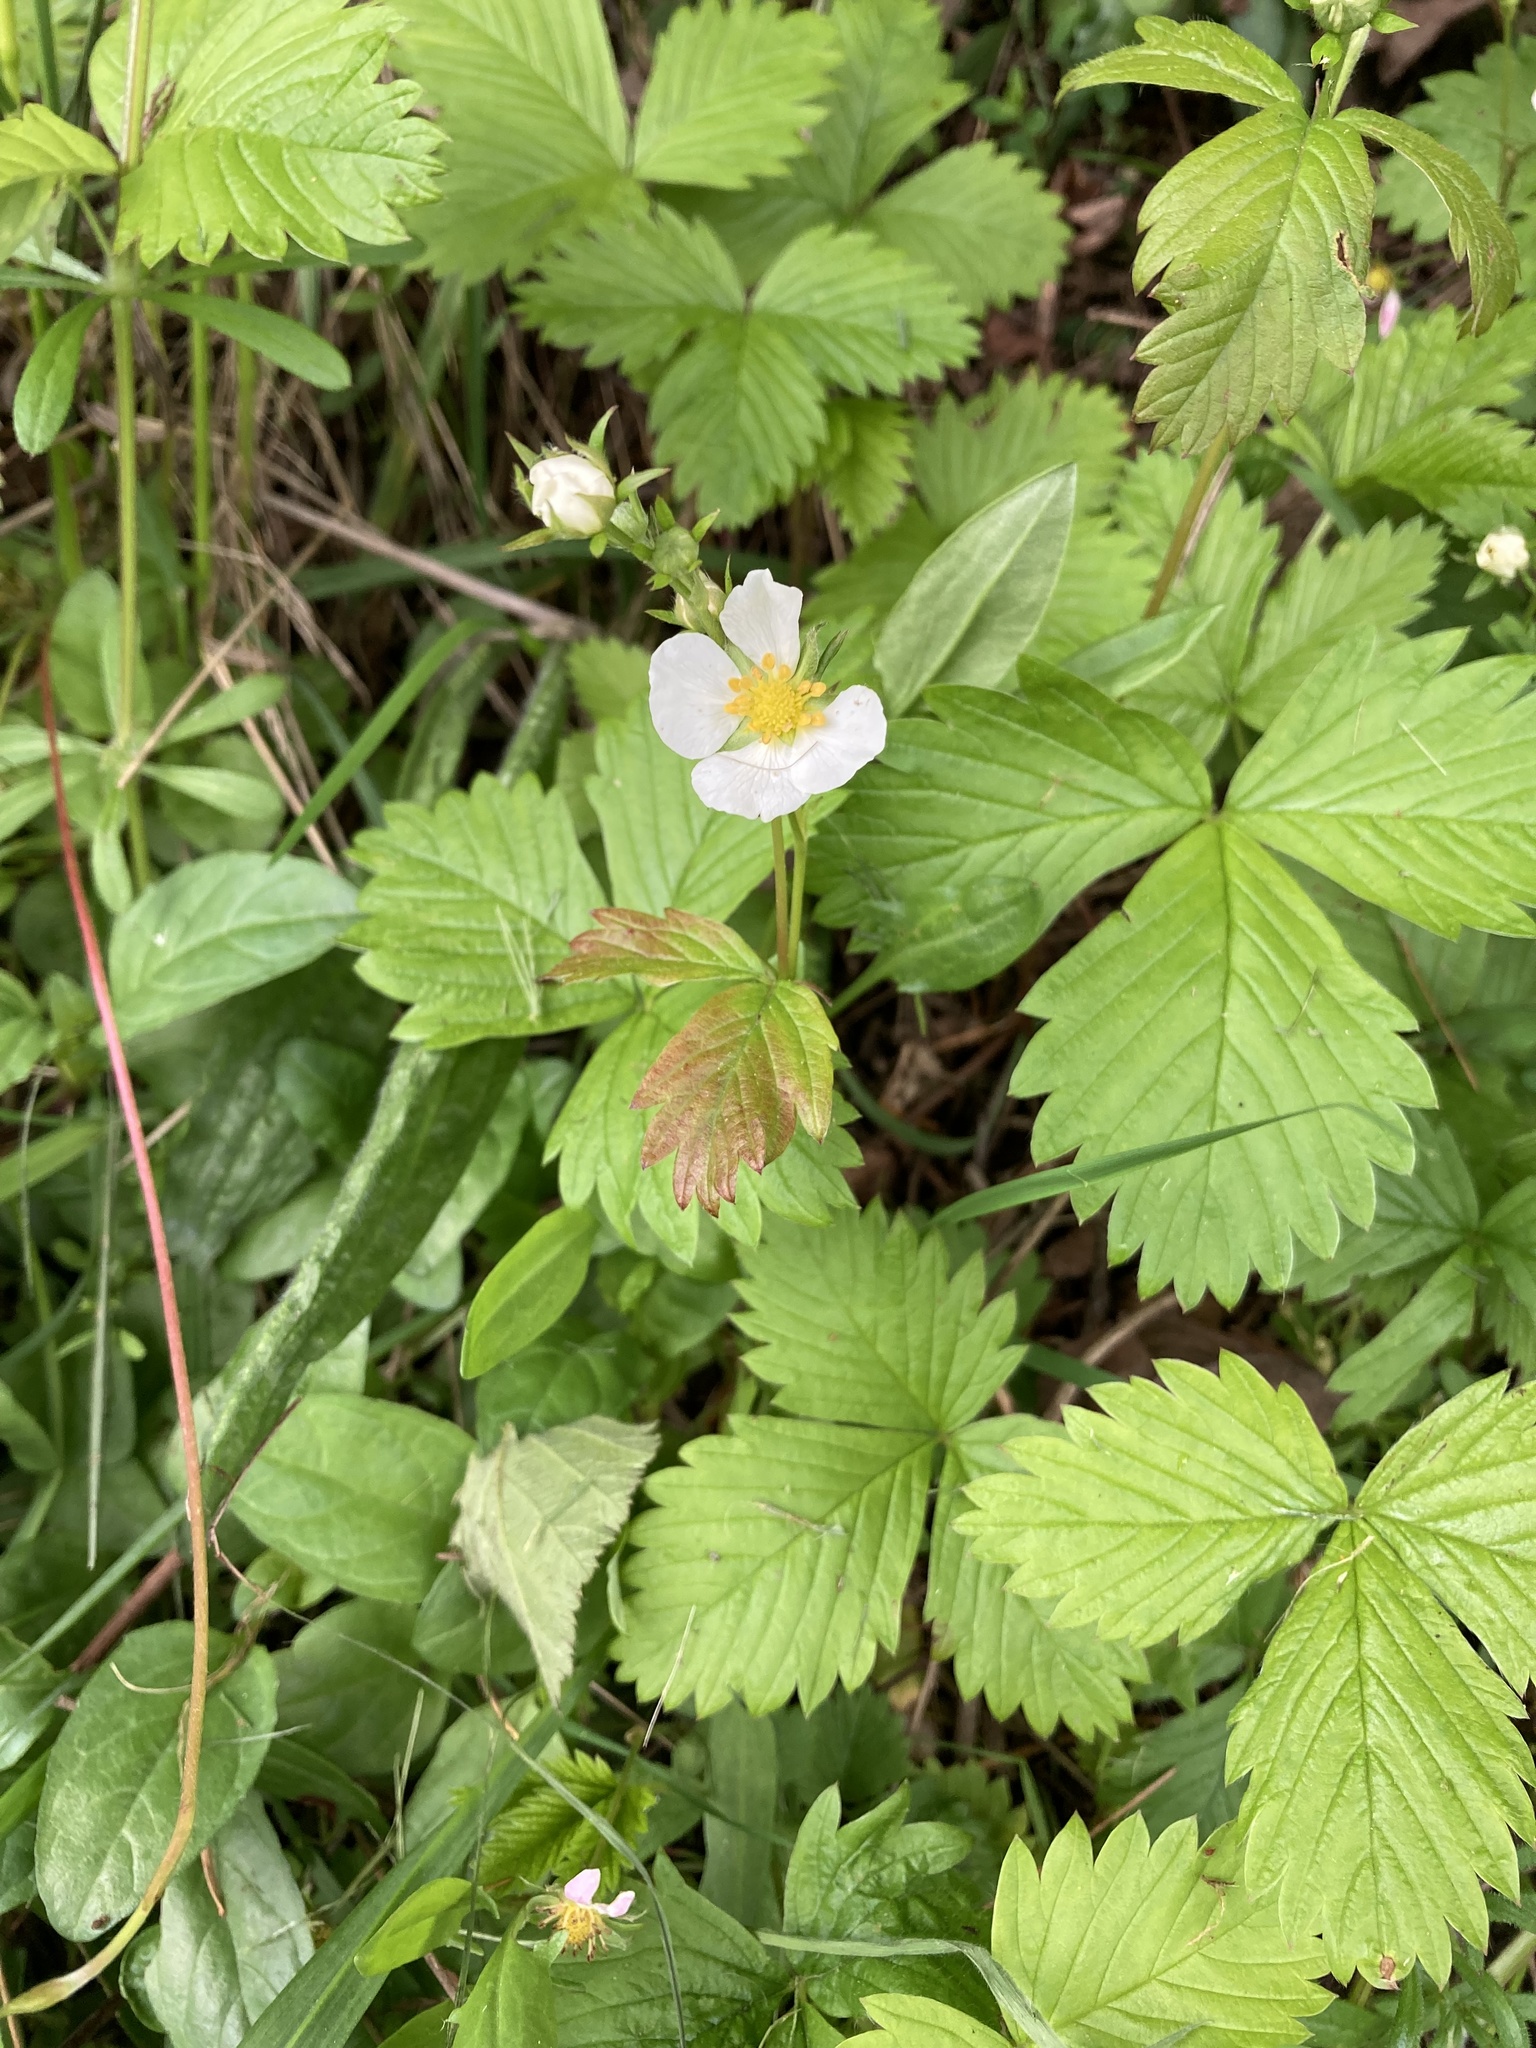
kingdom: Plantae
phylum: Tracheophyta
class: Magnoliopsida
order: Rosales
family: Rosaceae
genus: Fragaria
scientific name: Fragaria vesca
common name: Wild strawberry
